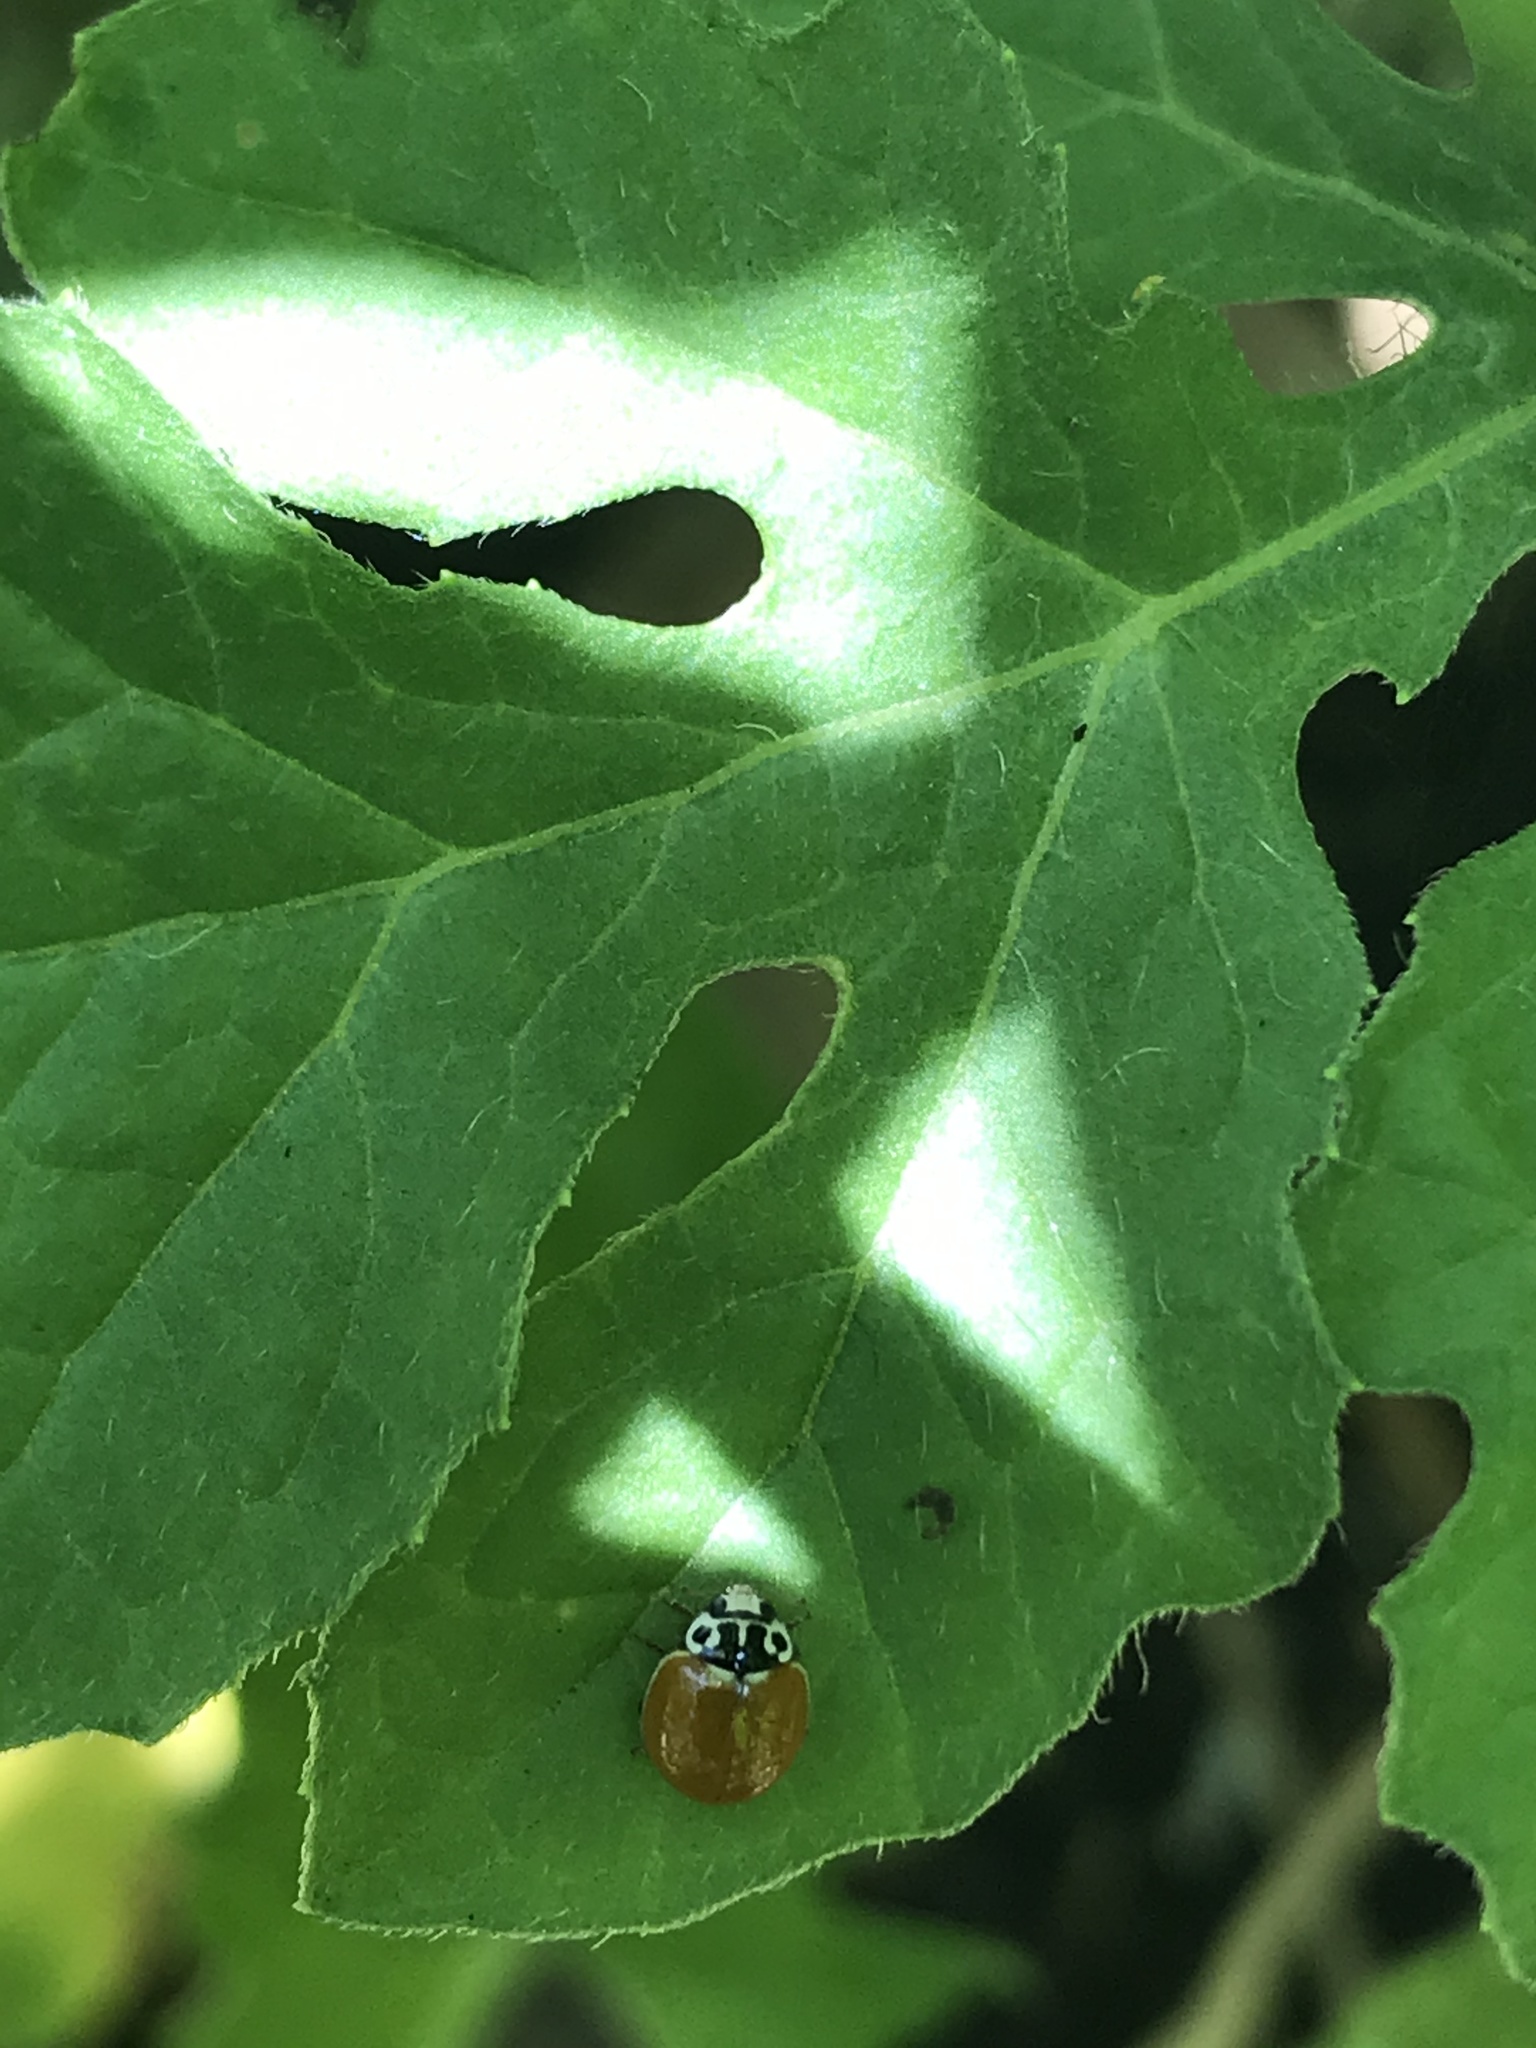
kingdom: Animalia
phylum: Arthropoda
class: Insecta
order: Coleoptera
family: Coccinellidae
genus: Cycloneda
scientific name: Cycloneda polita
